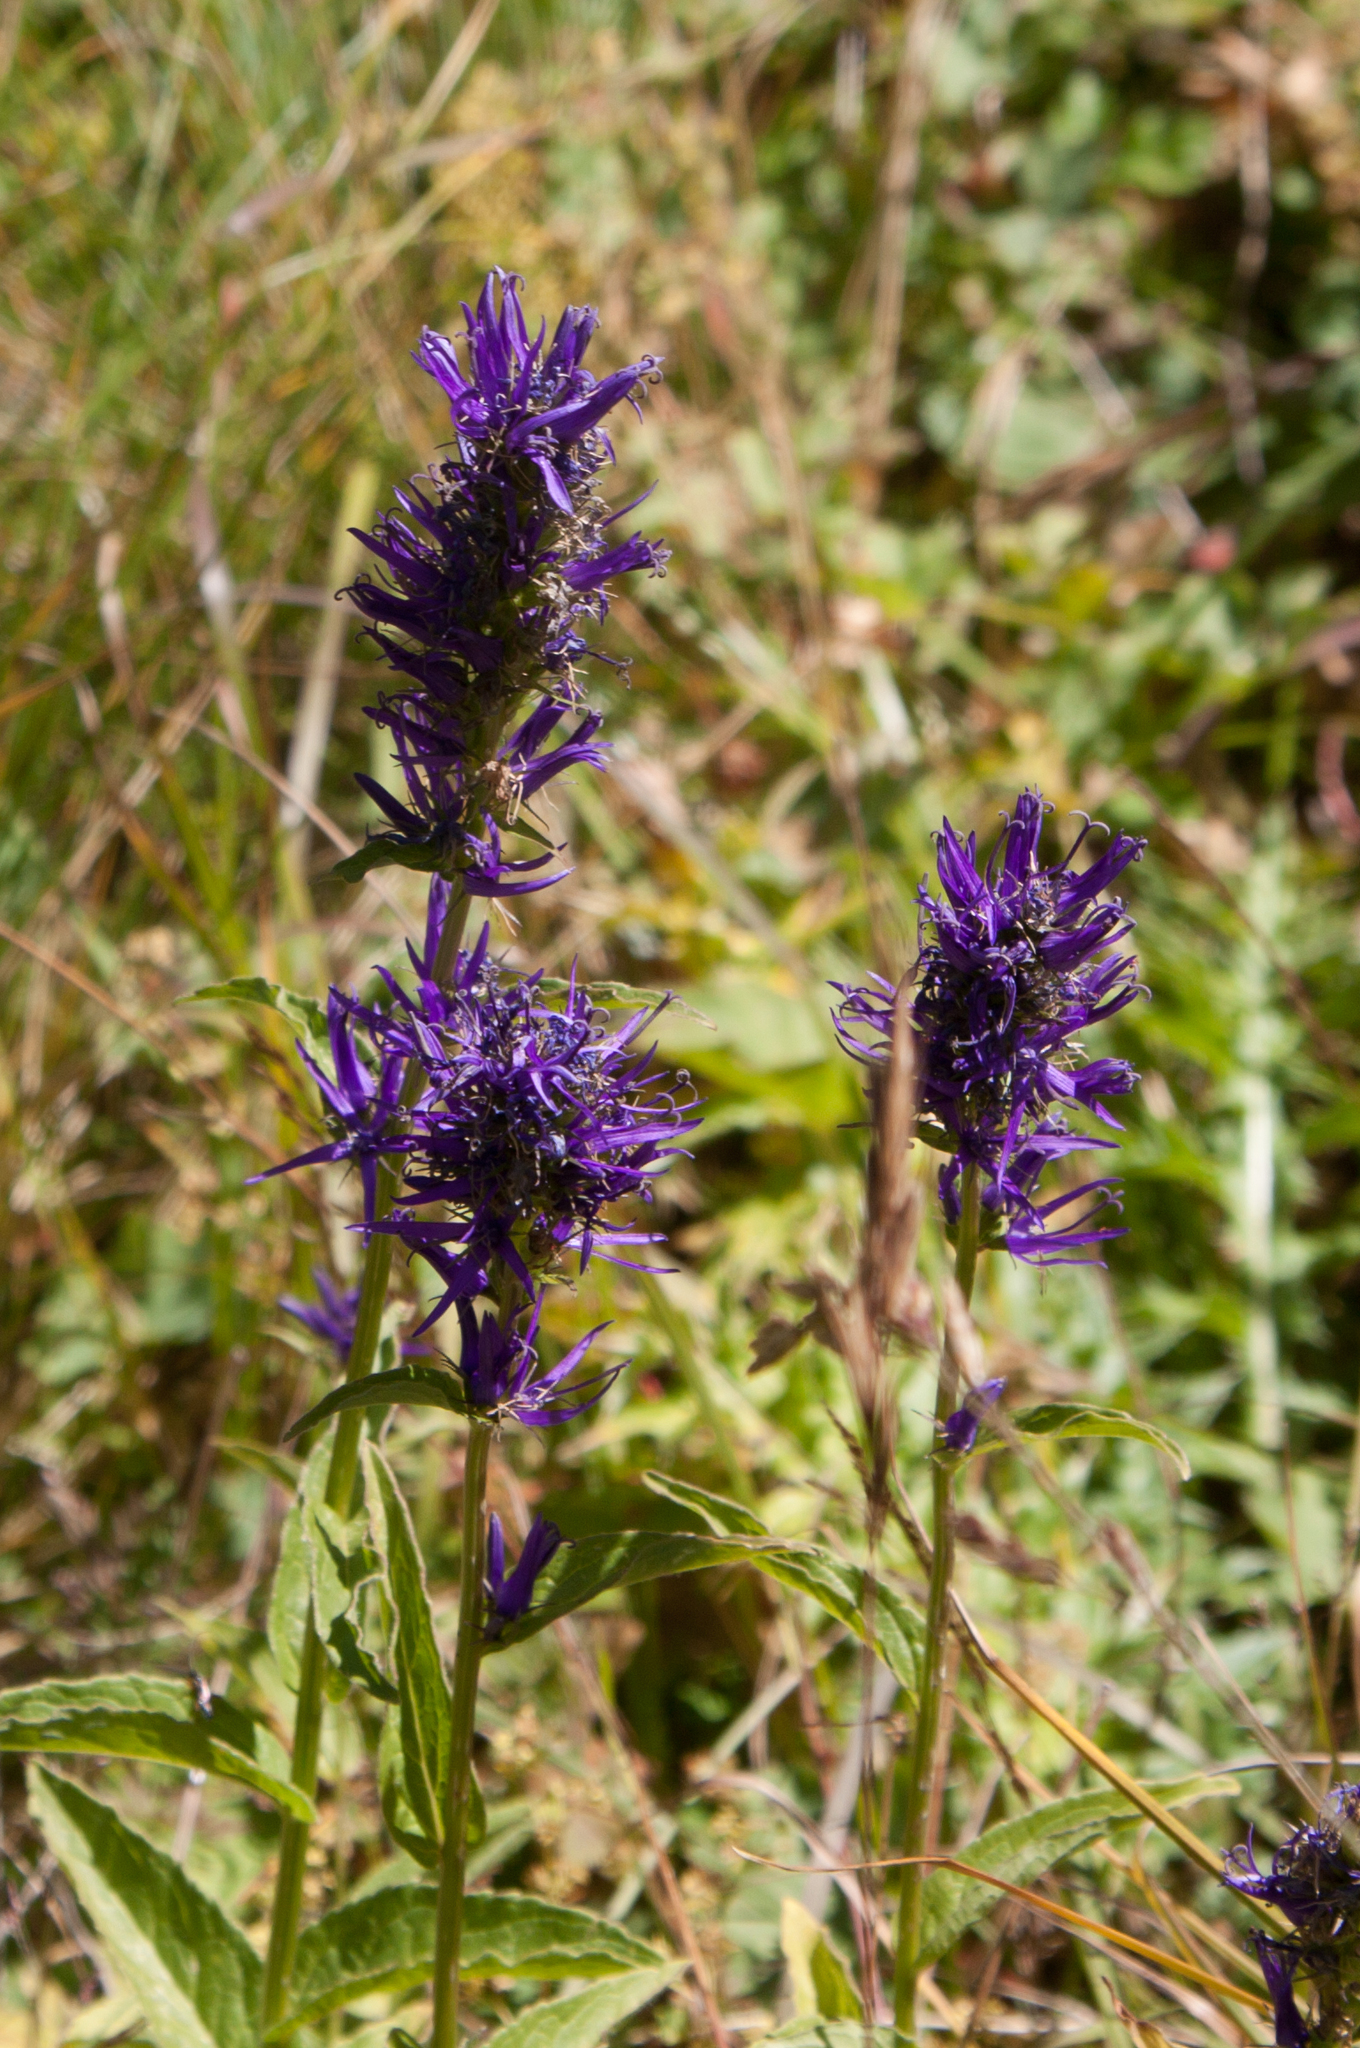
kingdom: Plantae
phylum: Tracheophyta
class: Magnoliopsida
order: Asterales
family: Campanulaceae
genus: Asyneuma
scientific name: Asyneuma campanuloides
